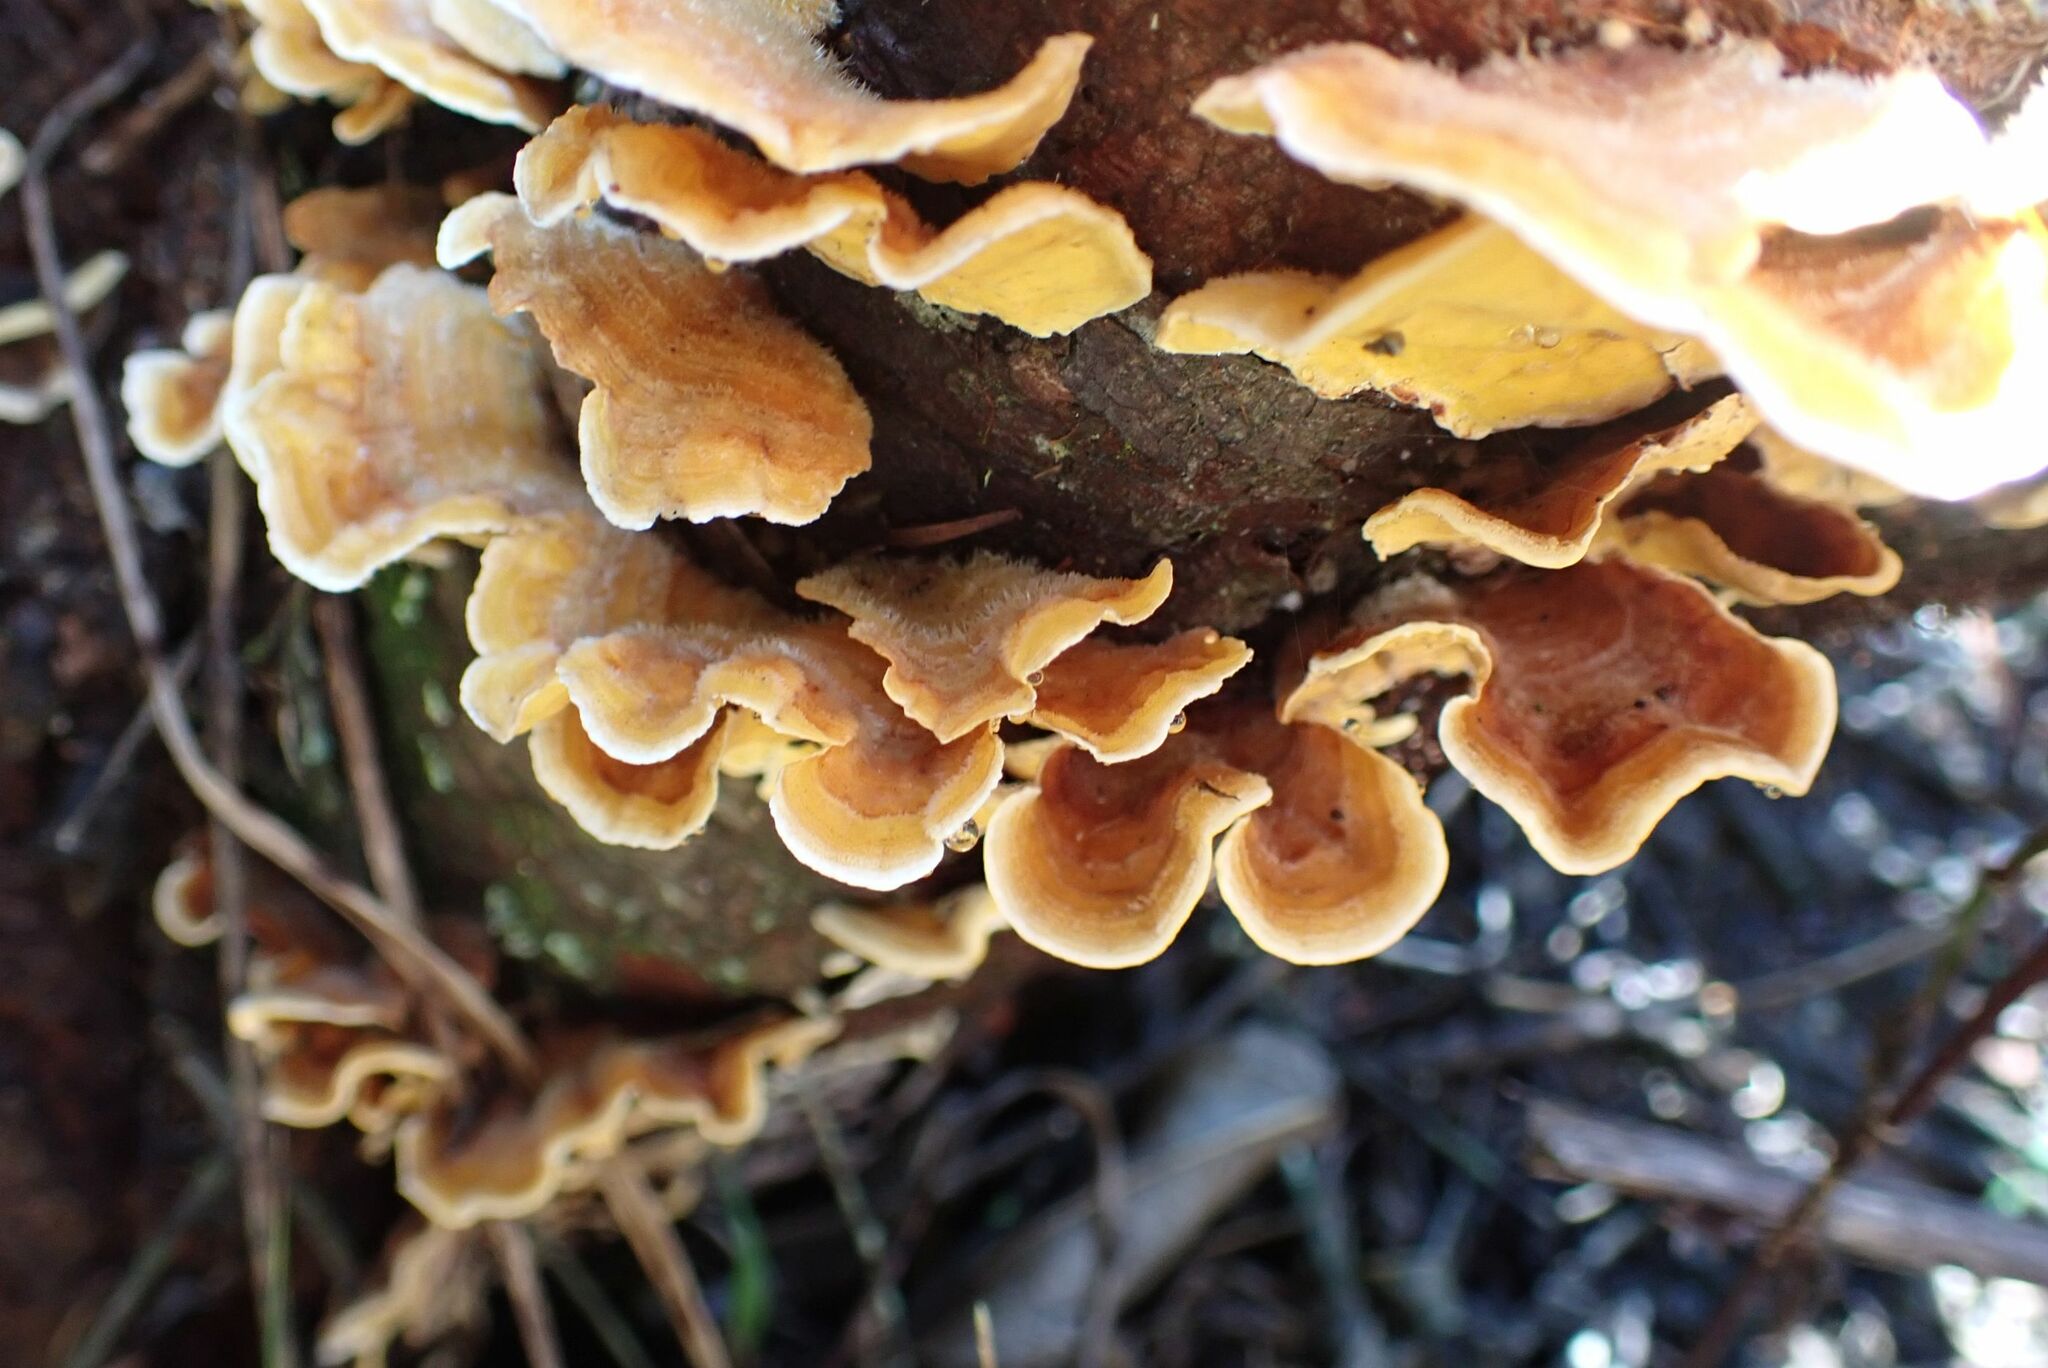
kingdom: Fungi
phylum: Basidiomycota
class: Agaricomycetes
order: Russulales
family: Stereaceae
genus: Stereum
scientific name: Stereum hirsutum
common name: Hairy curtain crust
